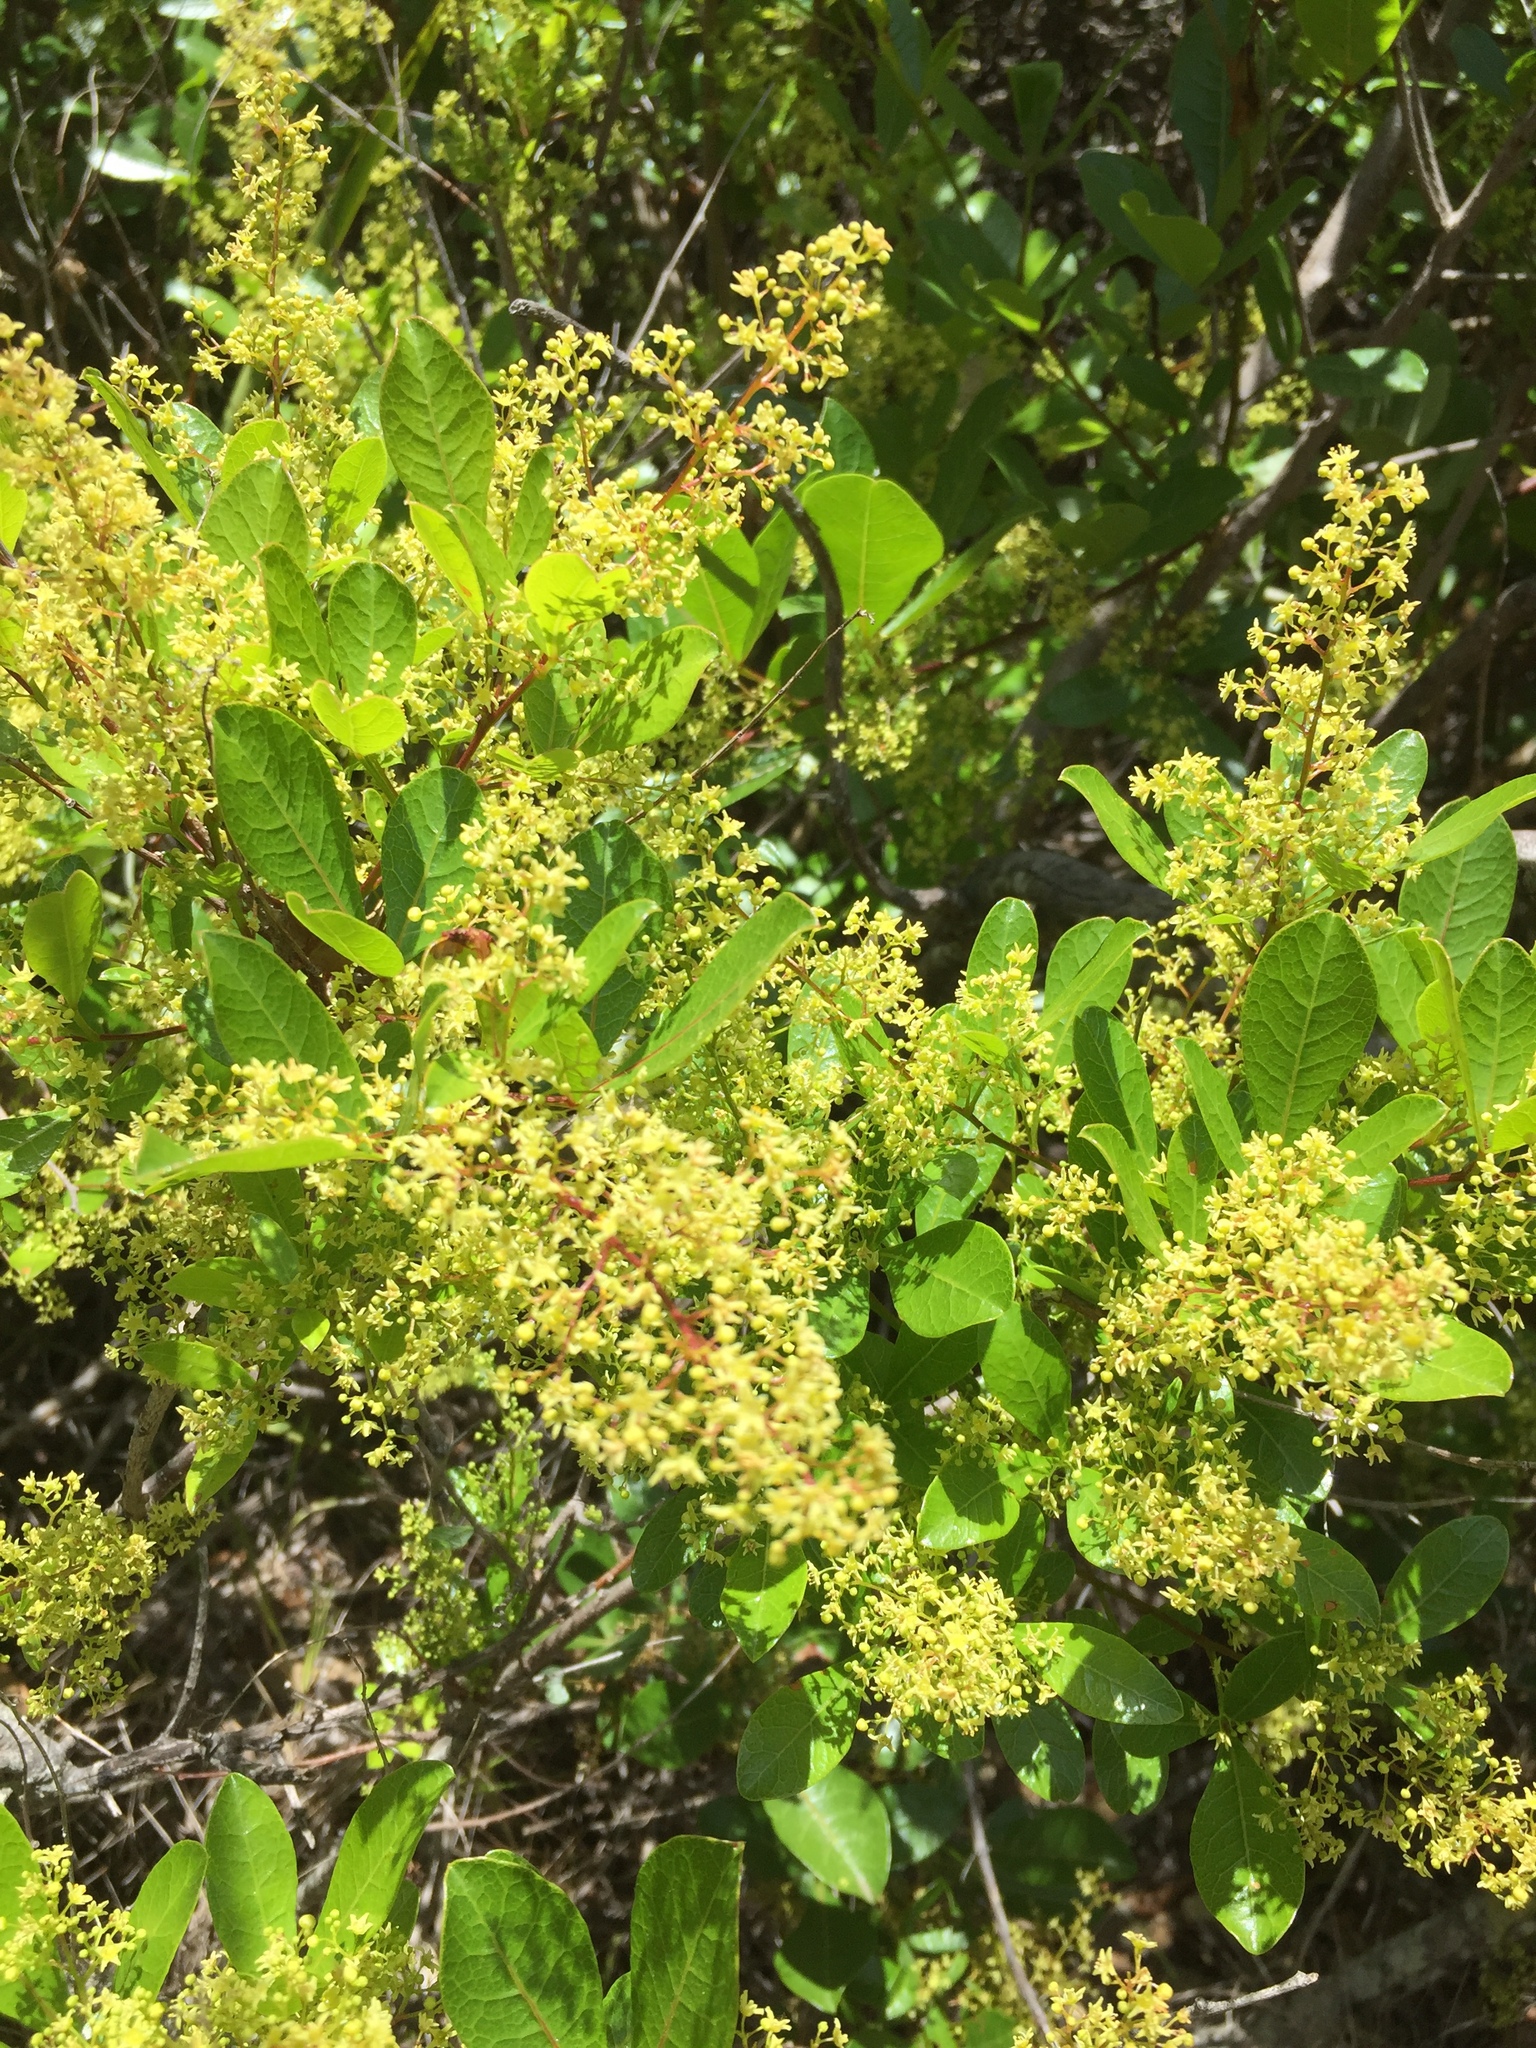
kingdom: Plantae
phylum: Tracheophyta
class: Magnoliopsida
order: Sapindales
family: Anacardiaceae
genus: Searsia
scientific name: Searsia laevigata
